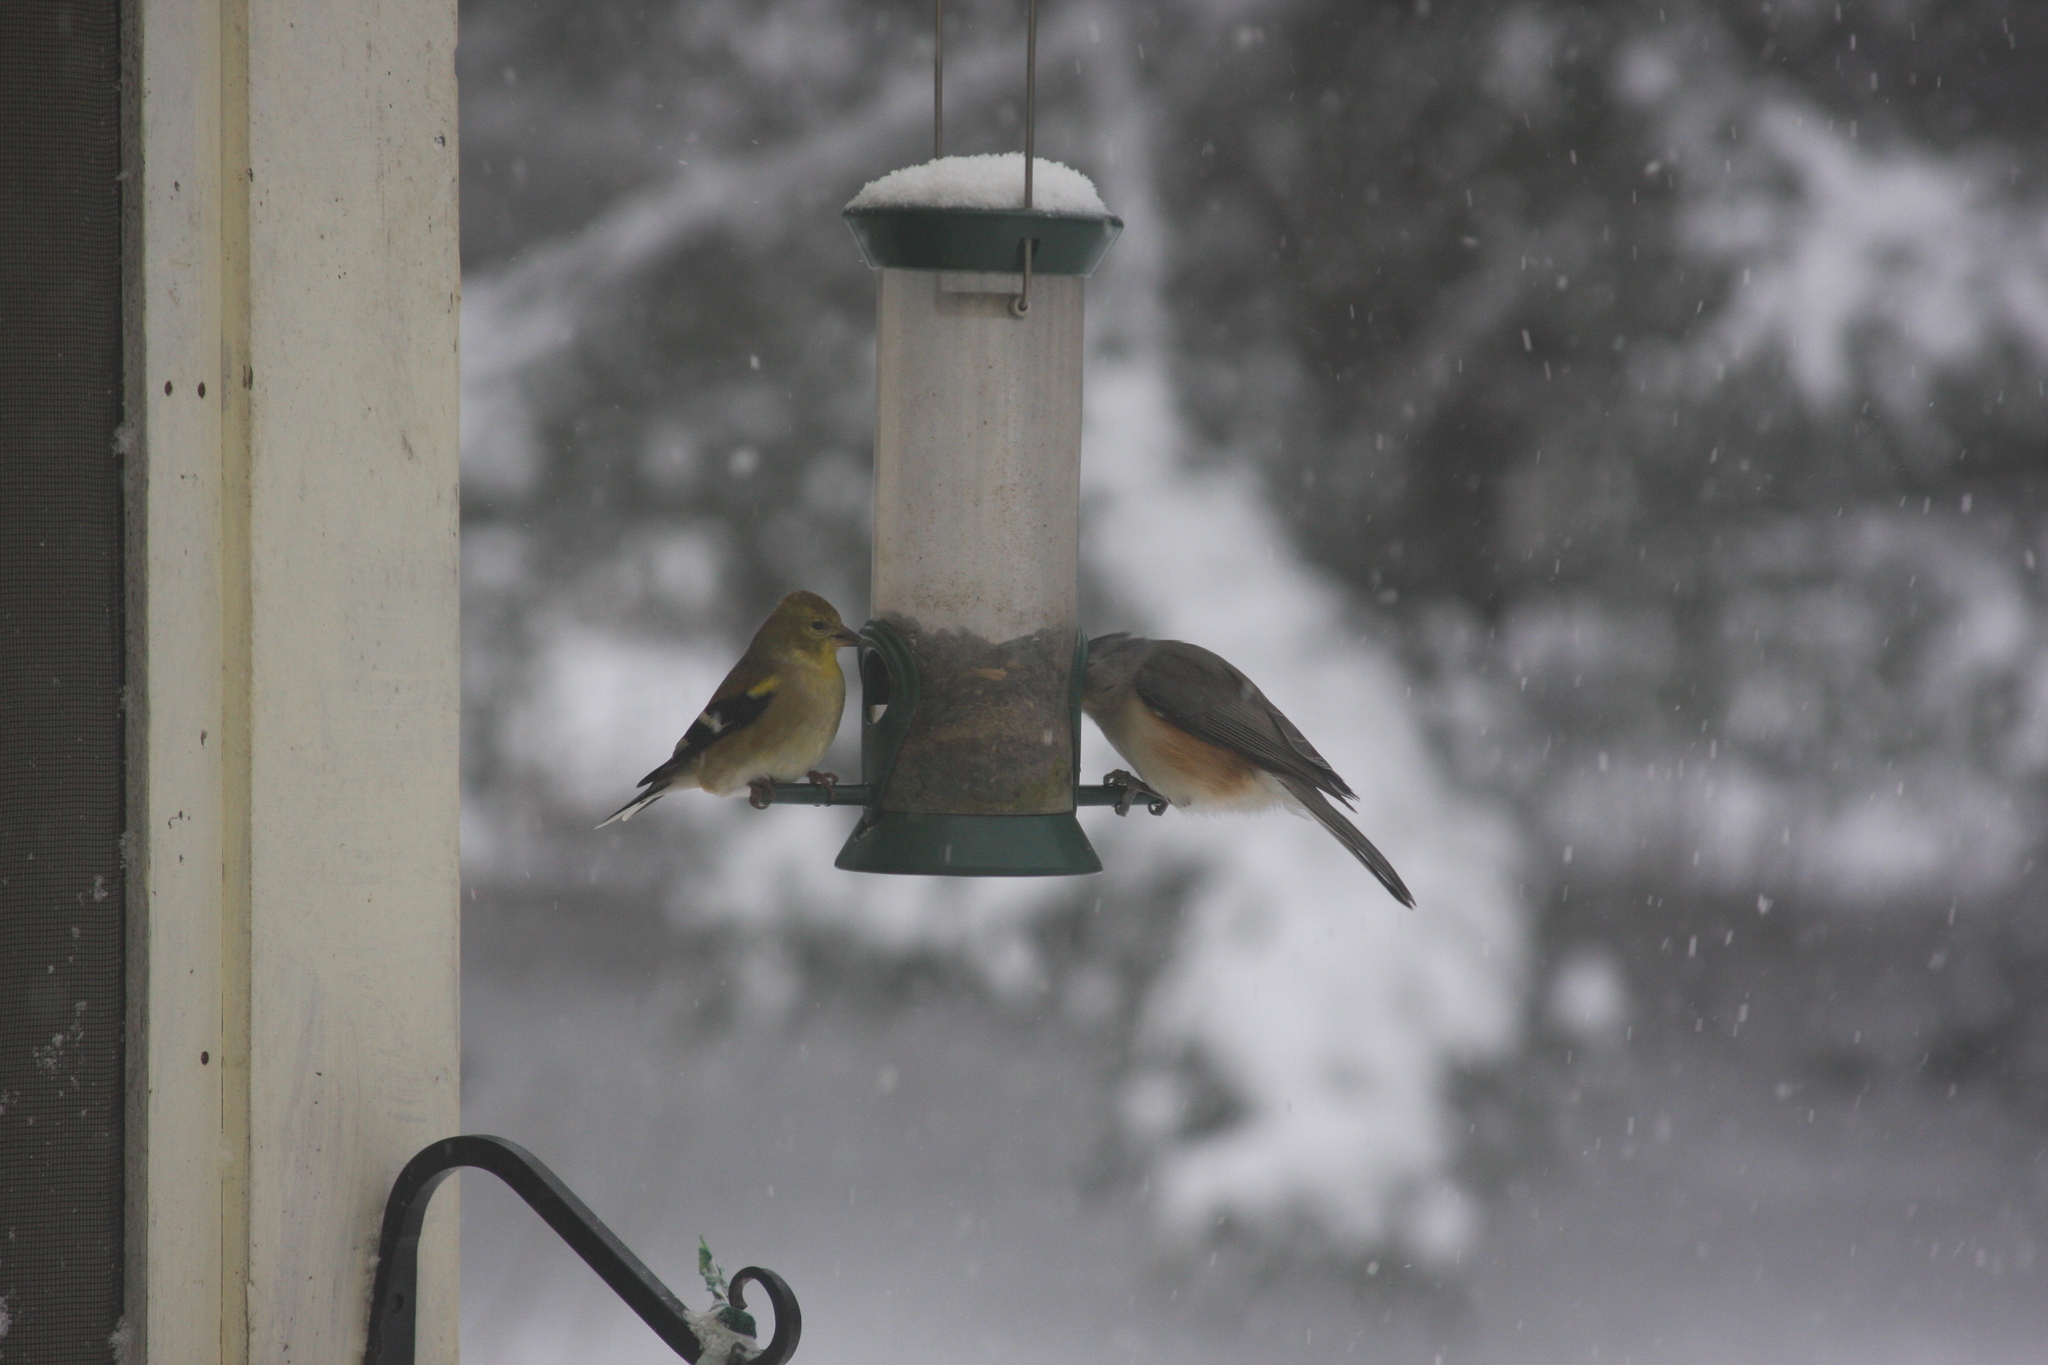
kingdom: Animalia
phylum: Chordata
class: Aves
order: Passeriformes
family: Paridae
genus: Baeolophus
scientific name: Baeolophus bicolor
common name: Tufted titmouse
